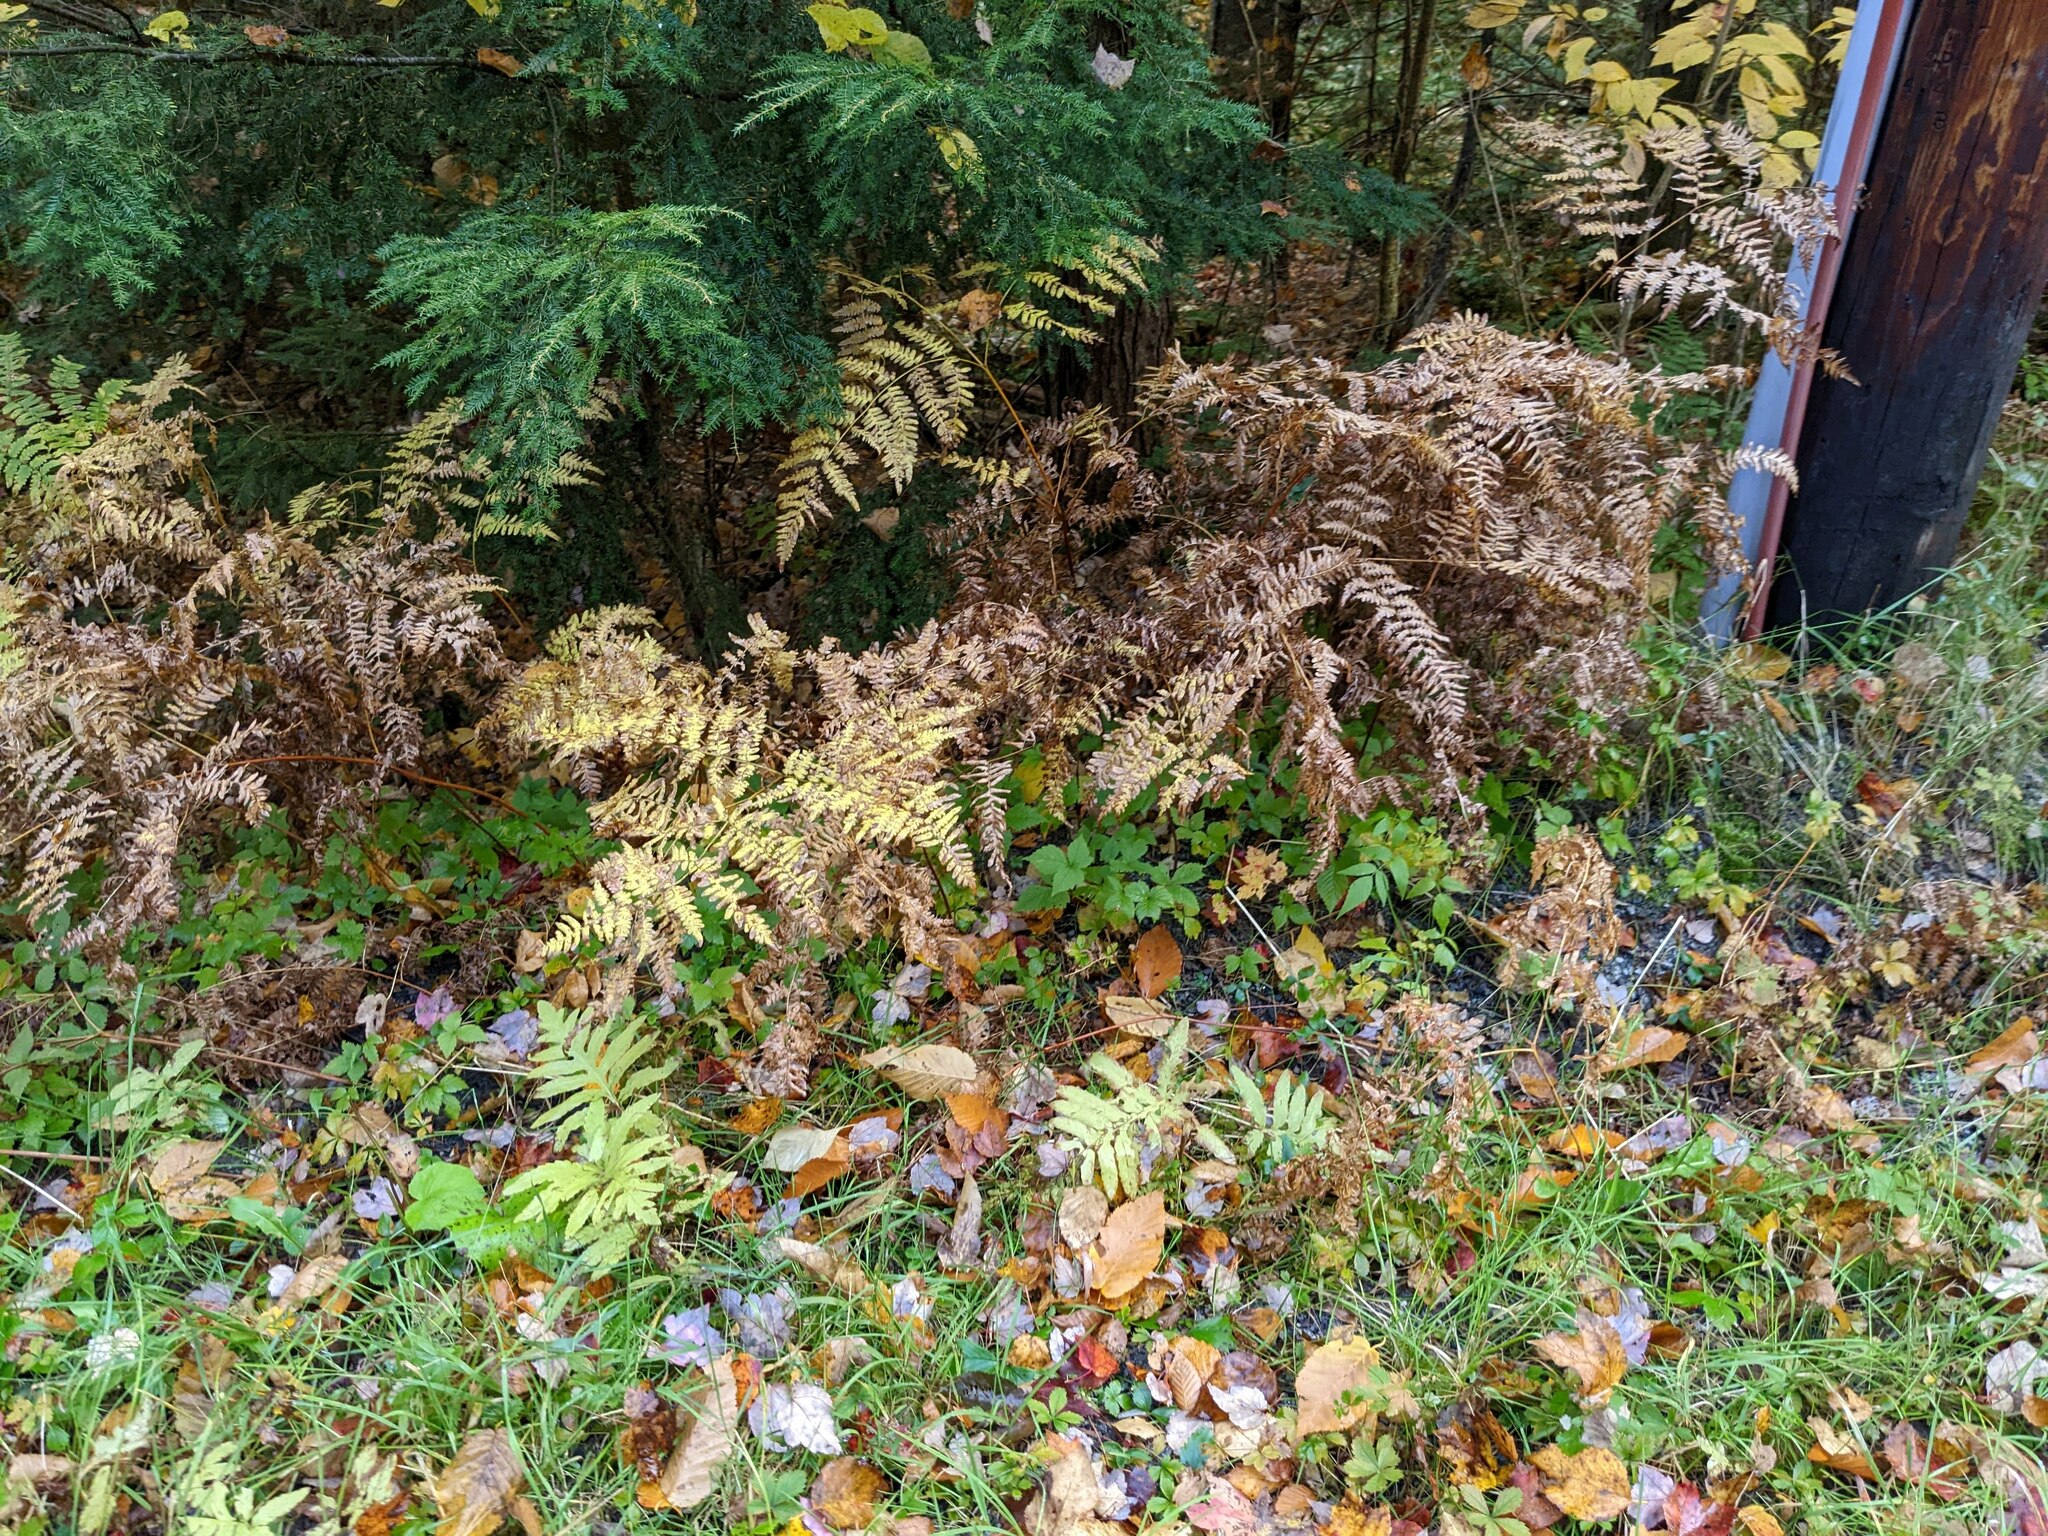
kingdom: Plantae
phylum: Tracheophyta
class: Polypodiopsida
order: Polypodiales
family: Dennstaedtiaceae
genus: Pteridium
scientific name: Pteridium aquilinum
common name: Bracken
